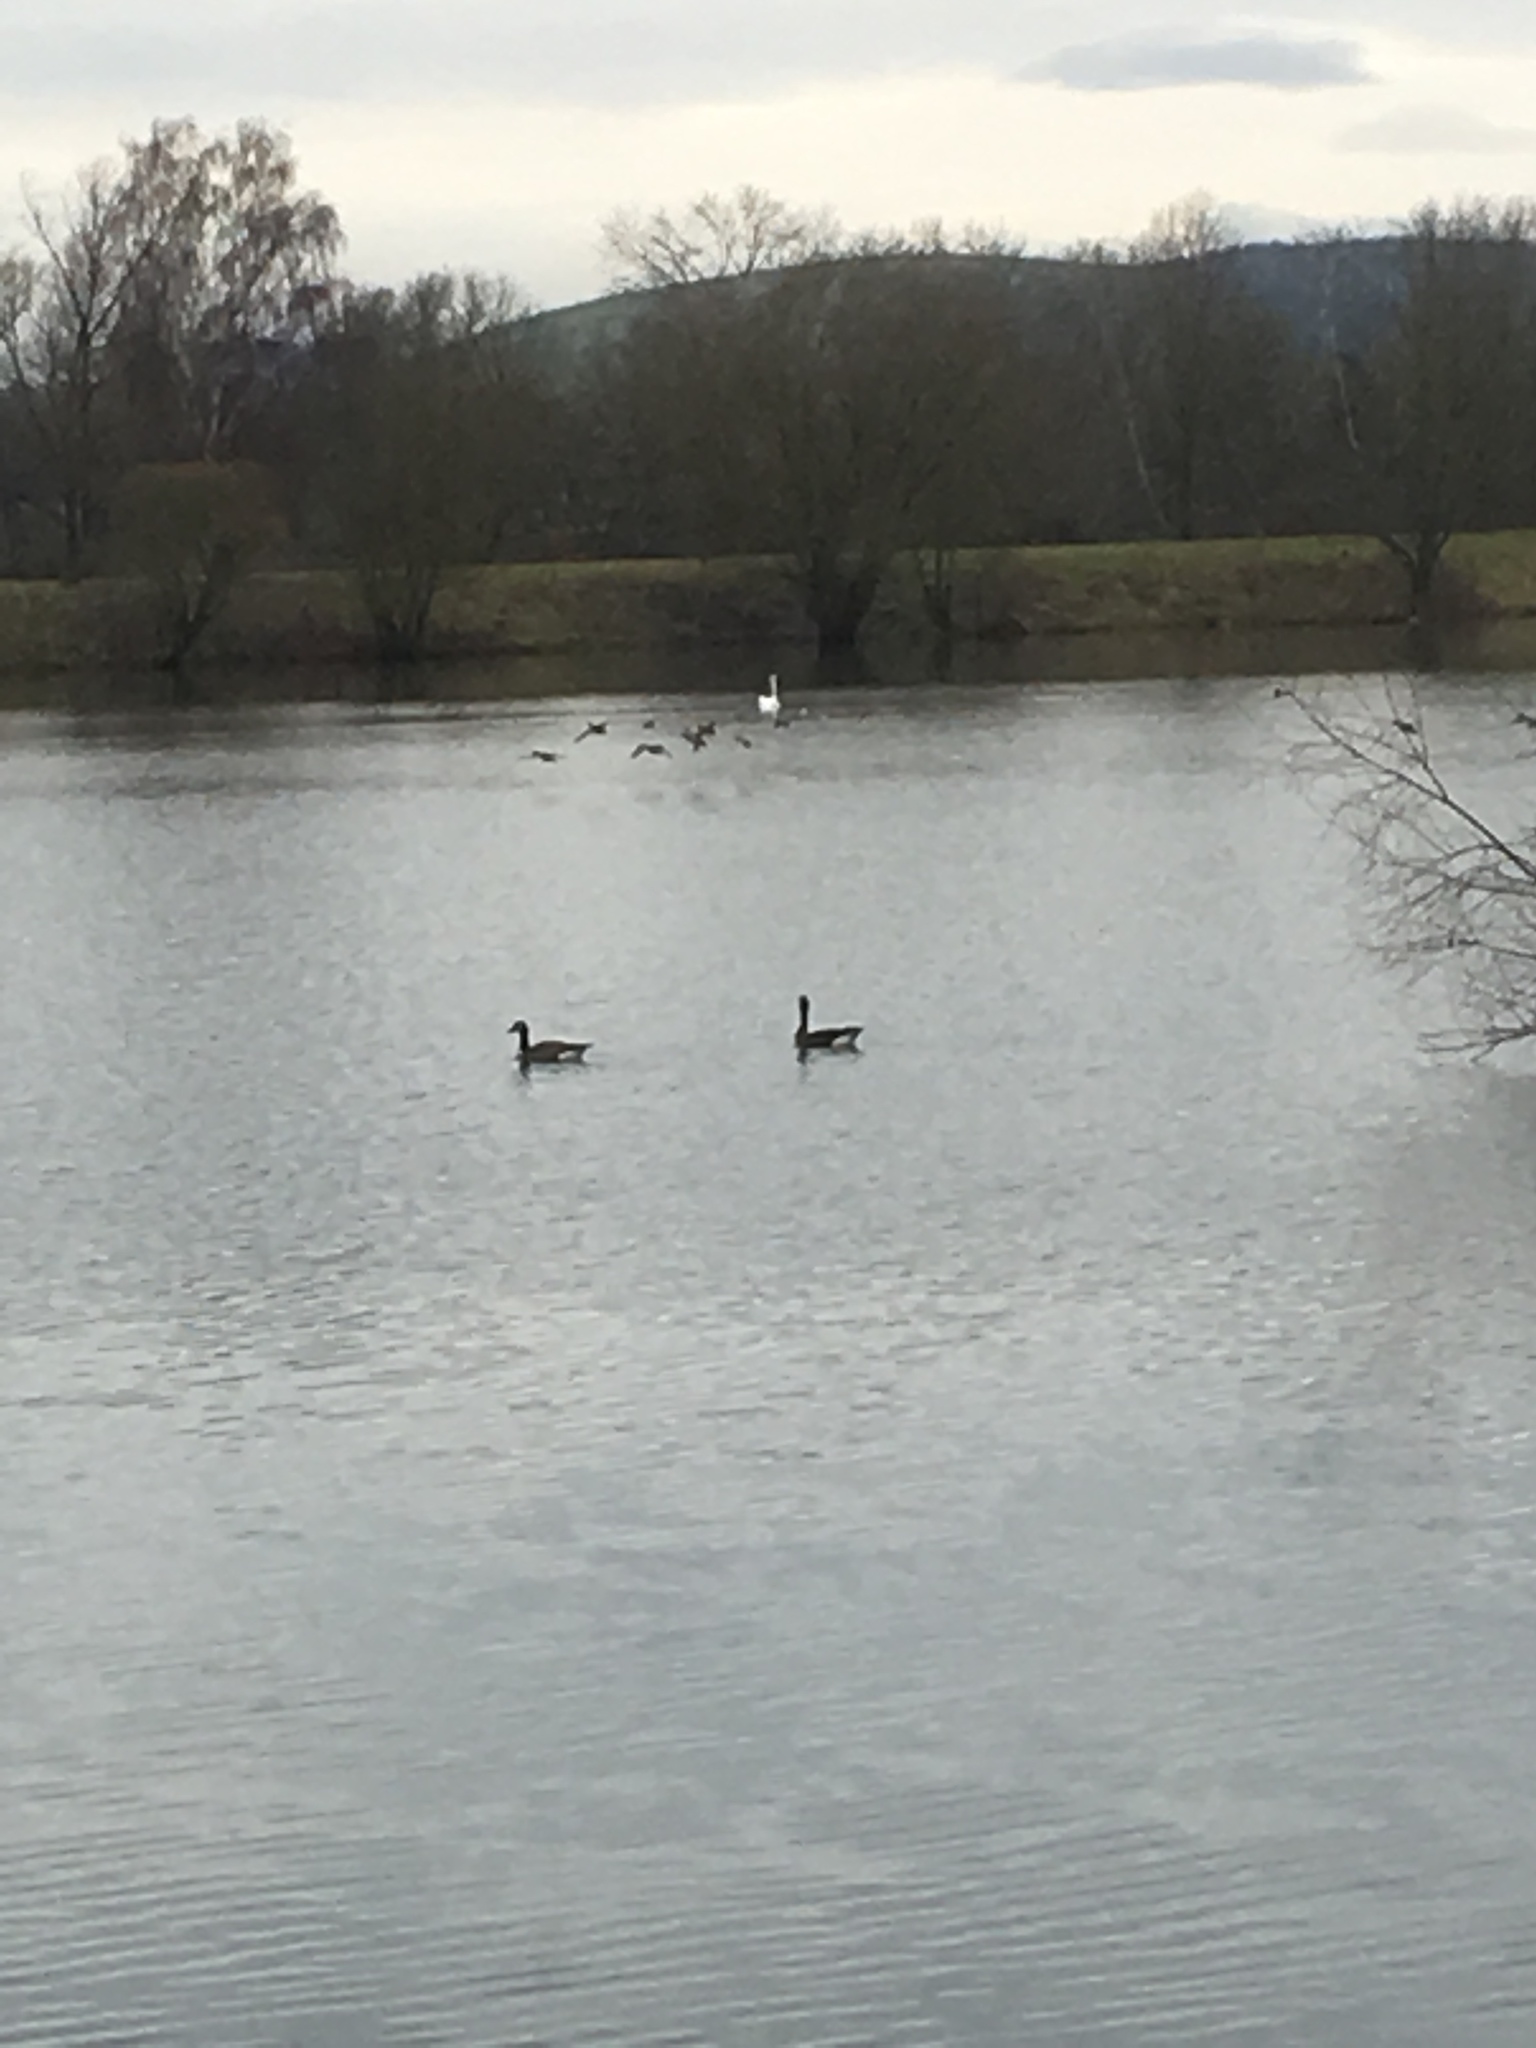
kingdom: Animalia
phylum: Chordata
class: Aves
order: Anseriformes
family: Anatidae
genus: Branta
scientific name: Branta canadensis
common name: Canada goose
